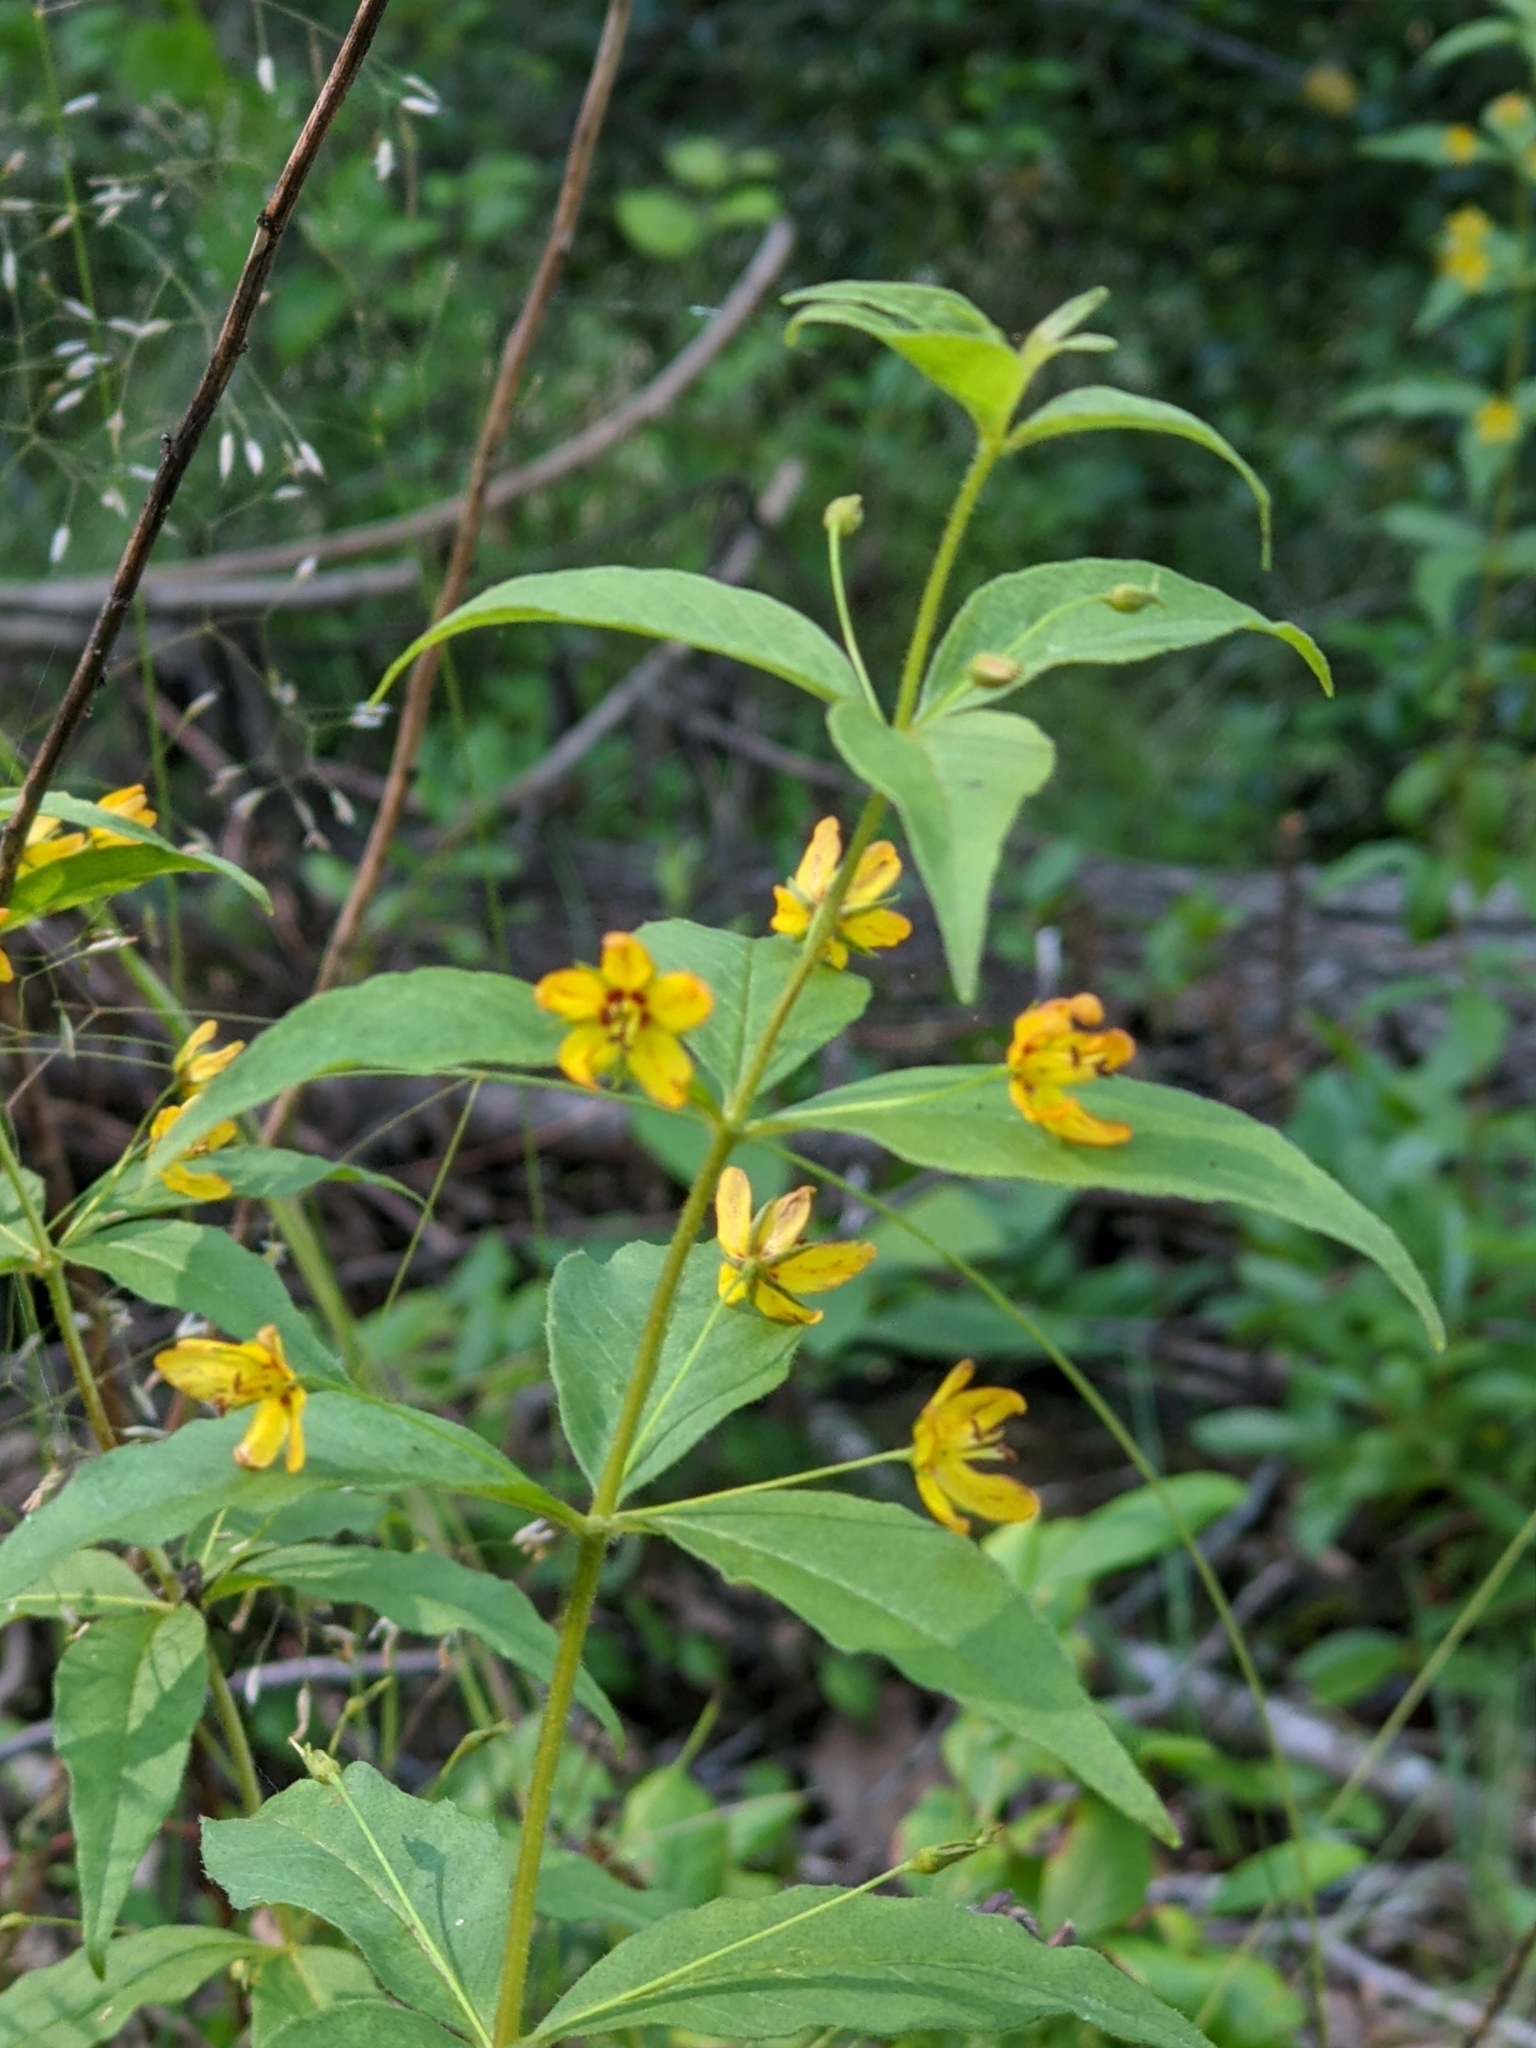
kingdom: Plantae
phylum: Tracheophyta
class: Magnoliopsida
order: Ericales
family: Primulaceae
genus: Lysimachia
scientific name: Lysimachia quadrifolia
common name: Whorled loosestrife
